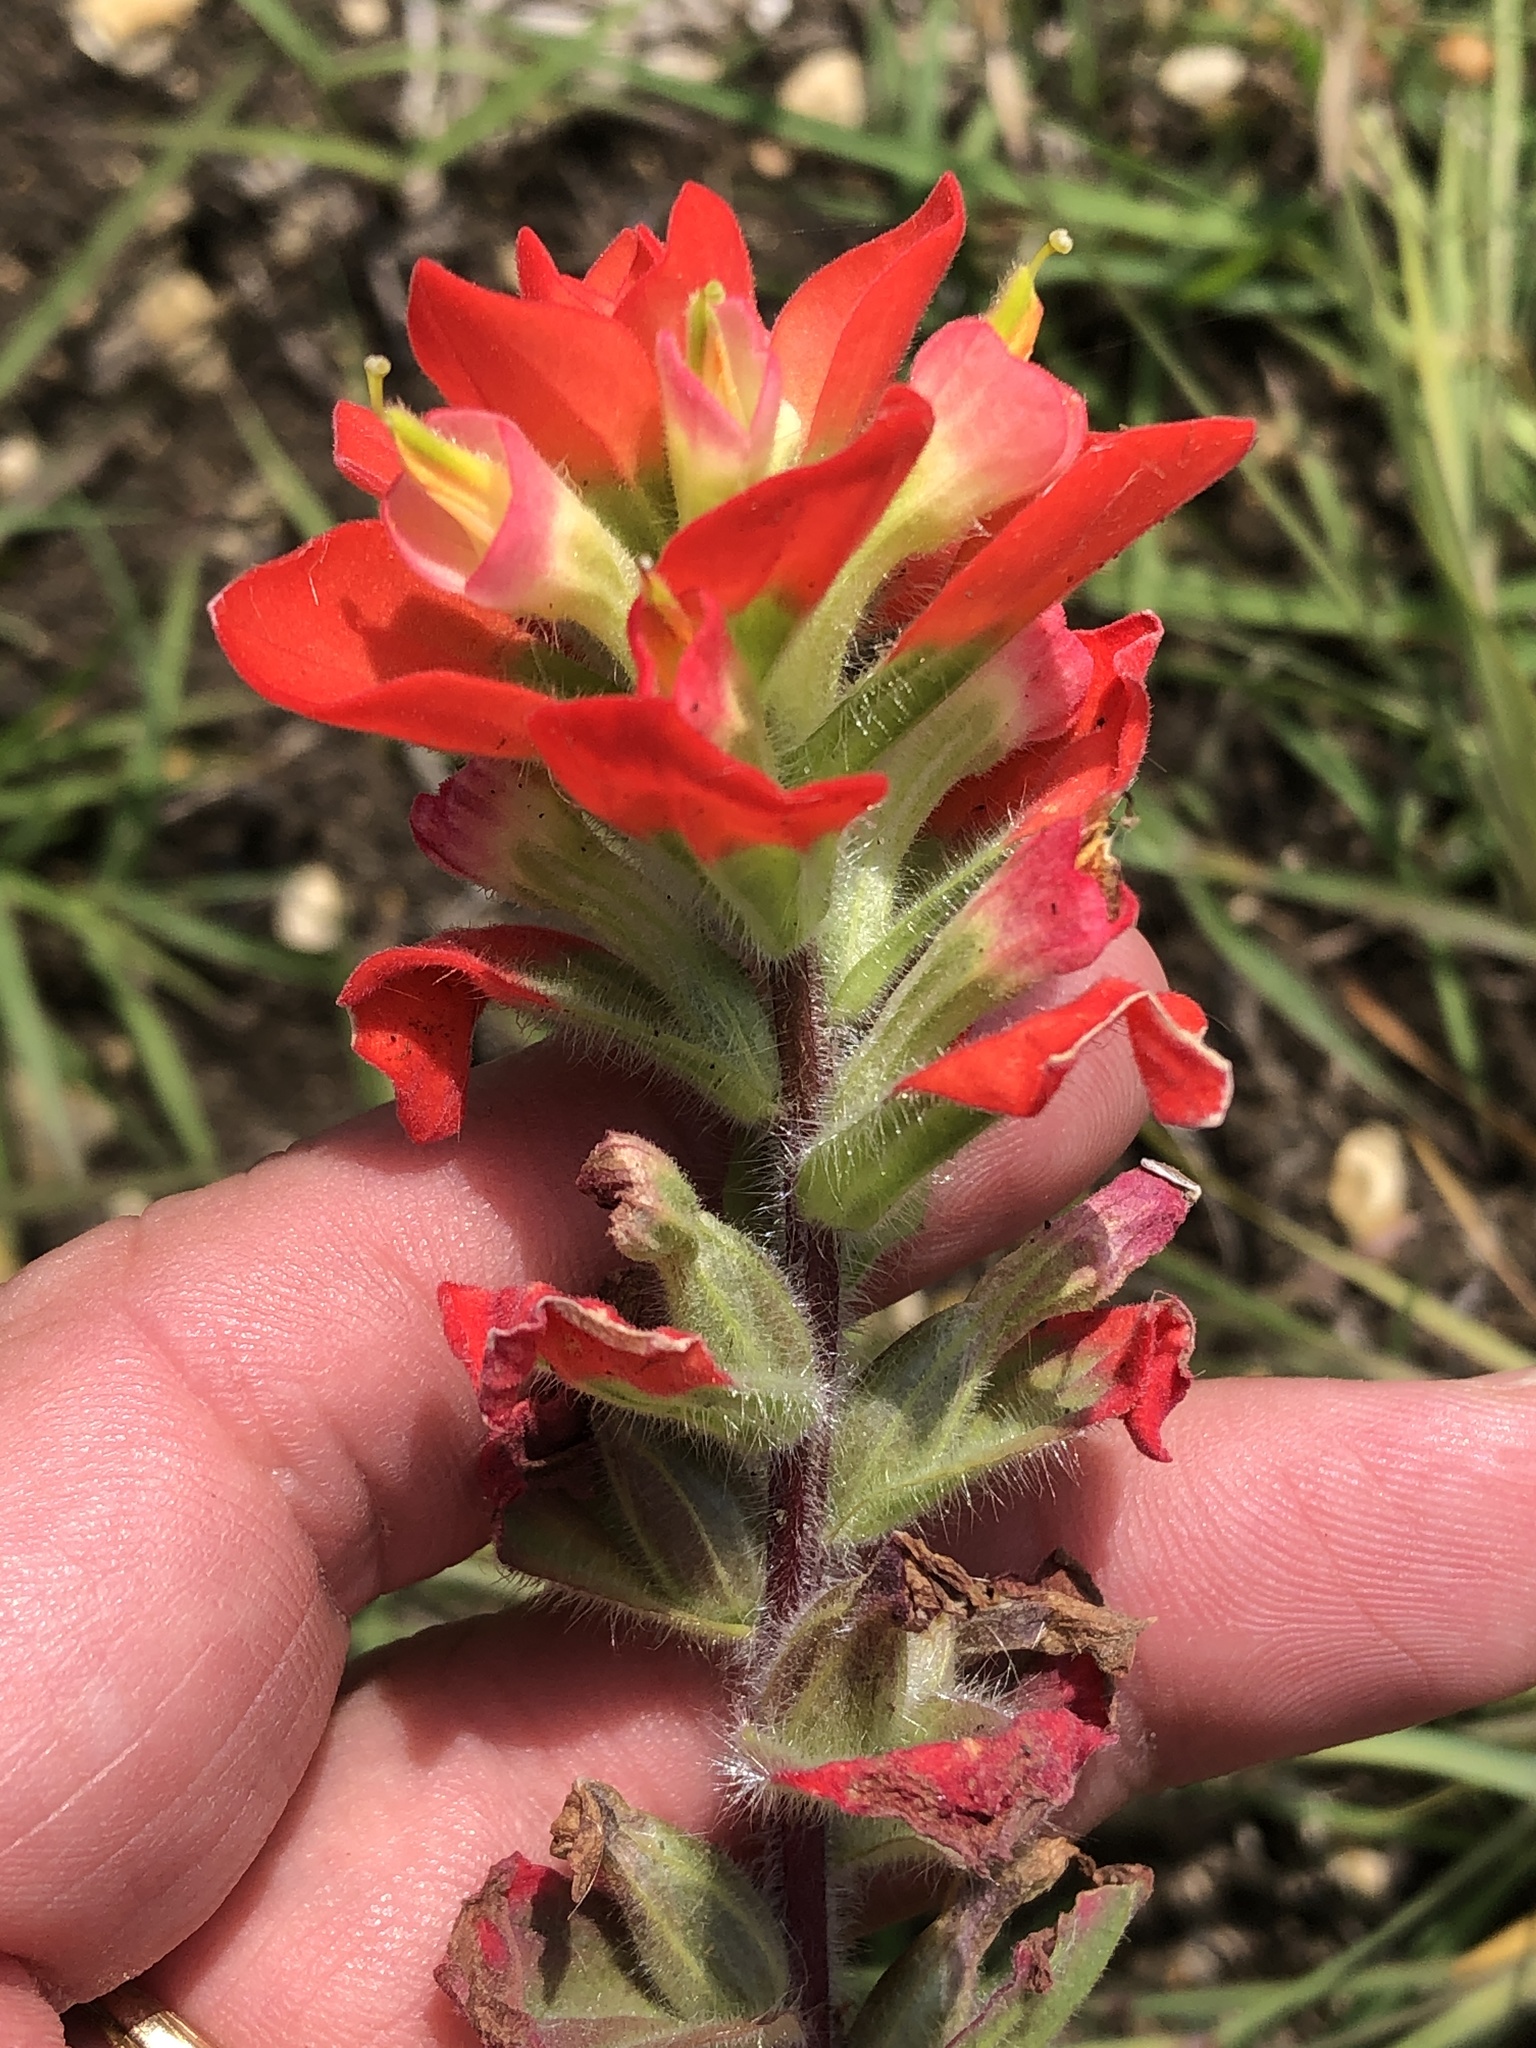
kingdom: Plantae
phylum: Tracheophyta
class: Magnoliopsida
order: Lamiales
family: Orobanchaceae
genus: Castilleja
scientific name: Castilleja indivisa
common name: Texas paintbrush
